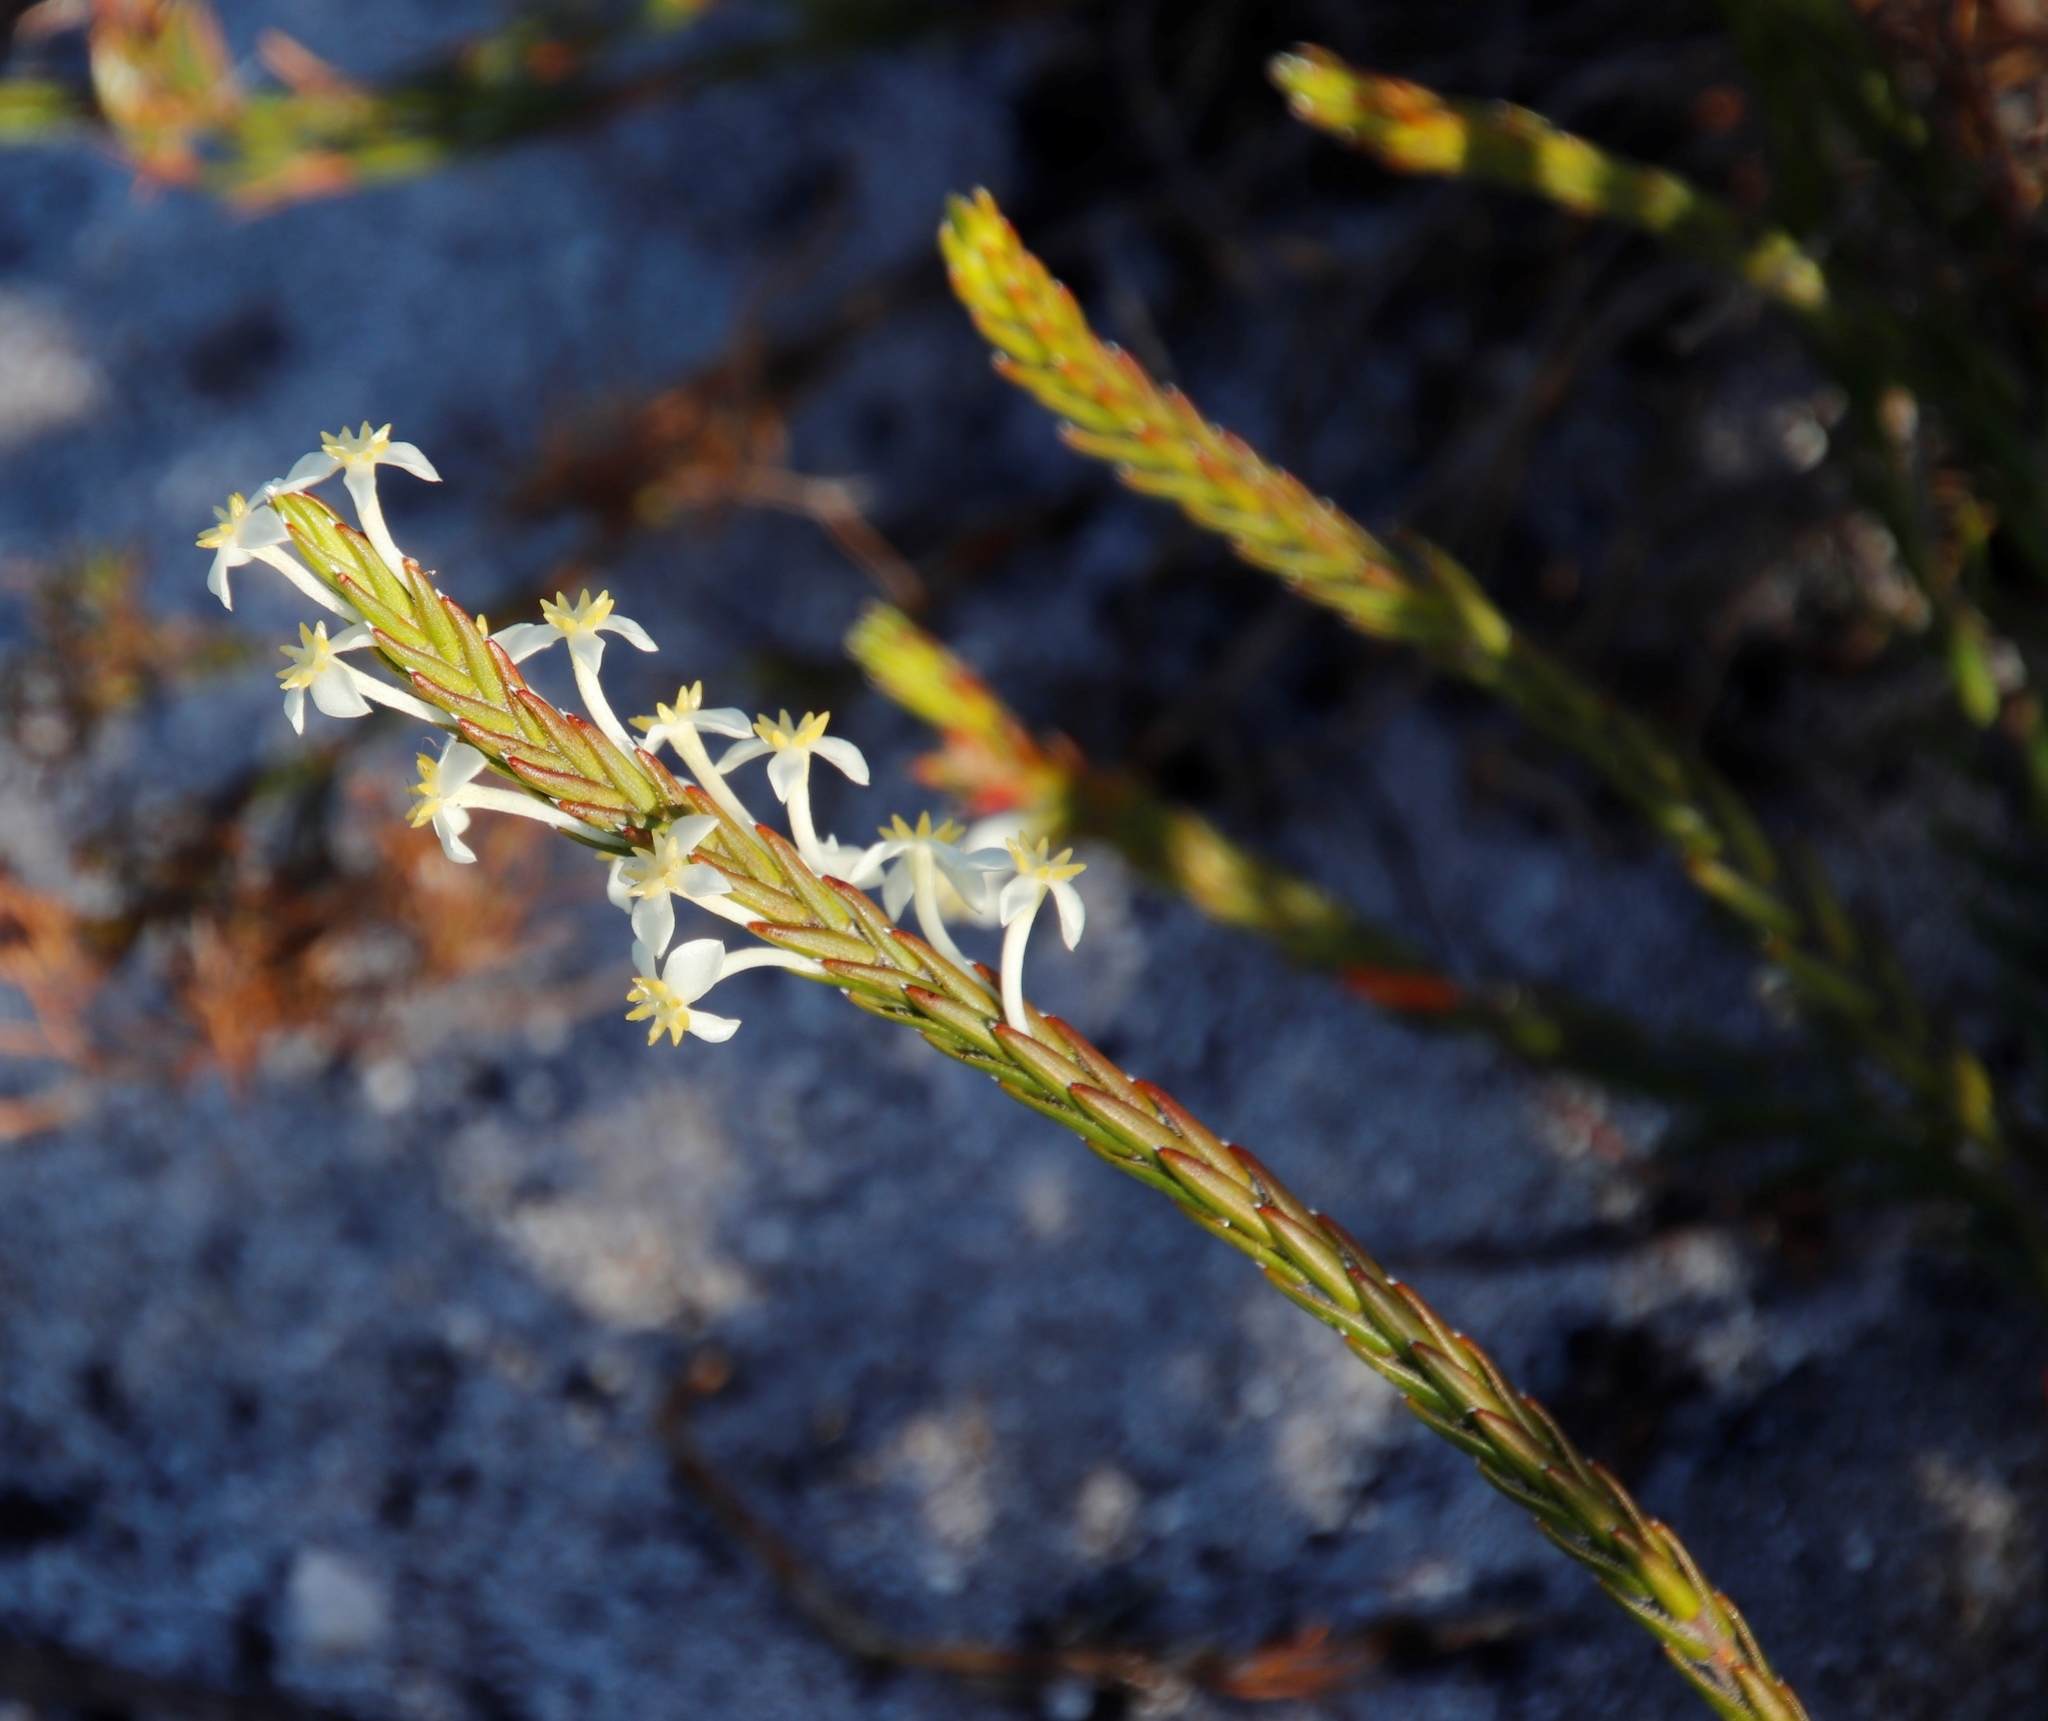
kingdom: Plantae
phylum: Tracheophyta
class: Magnoliopsida
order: Malvales
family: Thymelaeaceae
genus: Struthiola
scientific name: Struthiola ciliata
